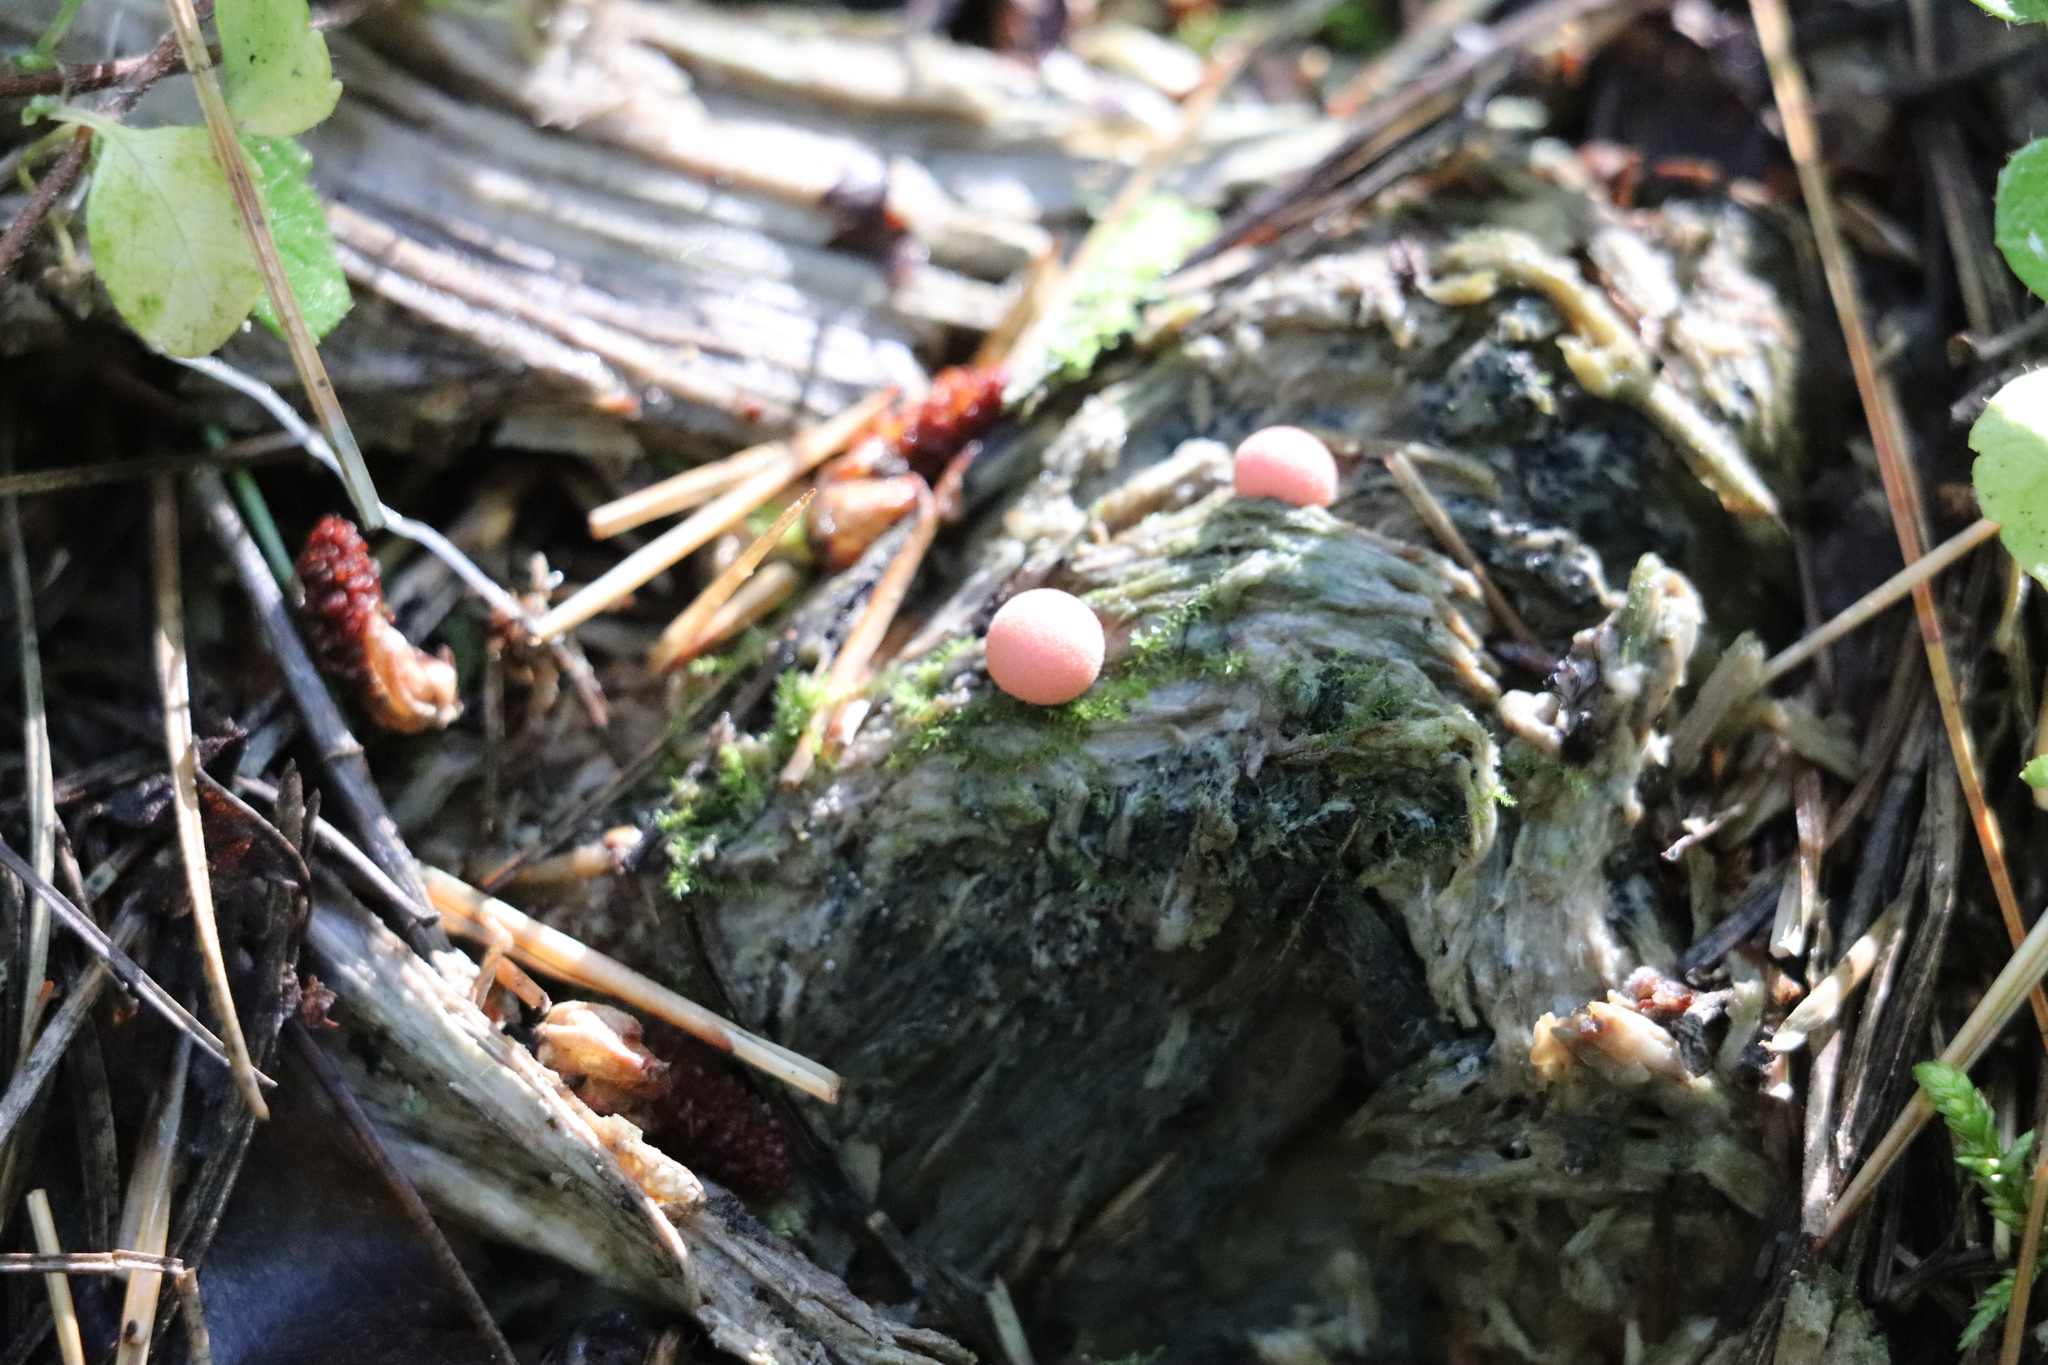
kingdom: Protozoa
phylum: Mycetozoa
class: Myxomycetes
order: Cribrariales
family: Tubiferaceae
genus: Lycogala
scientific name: Lycogala epidendrum
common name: Wolf's milk
